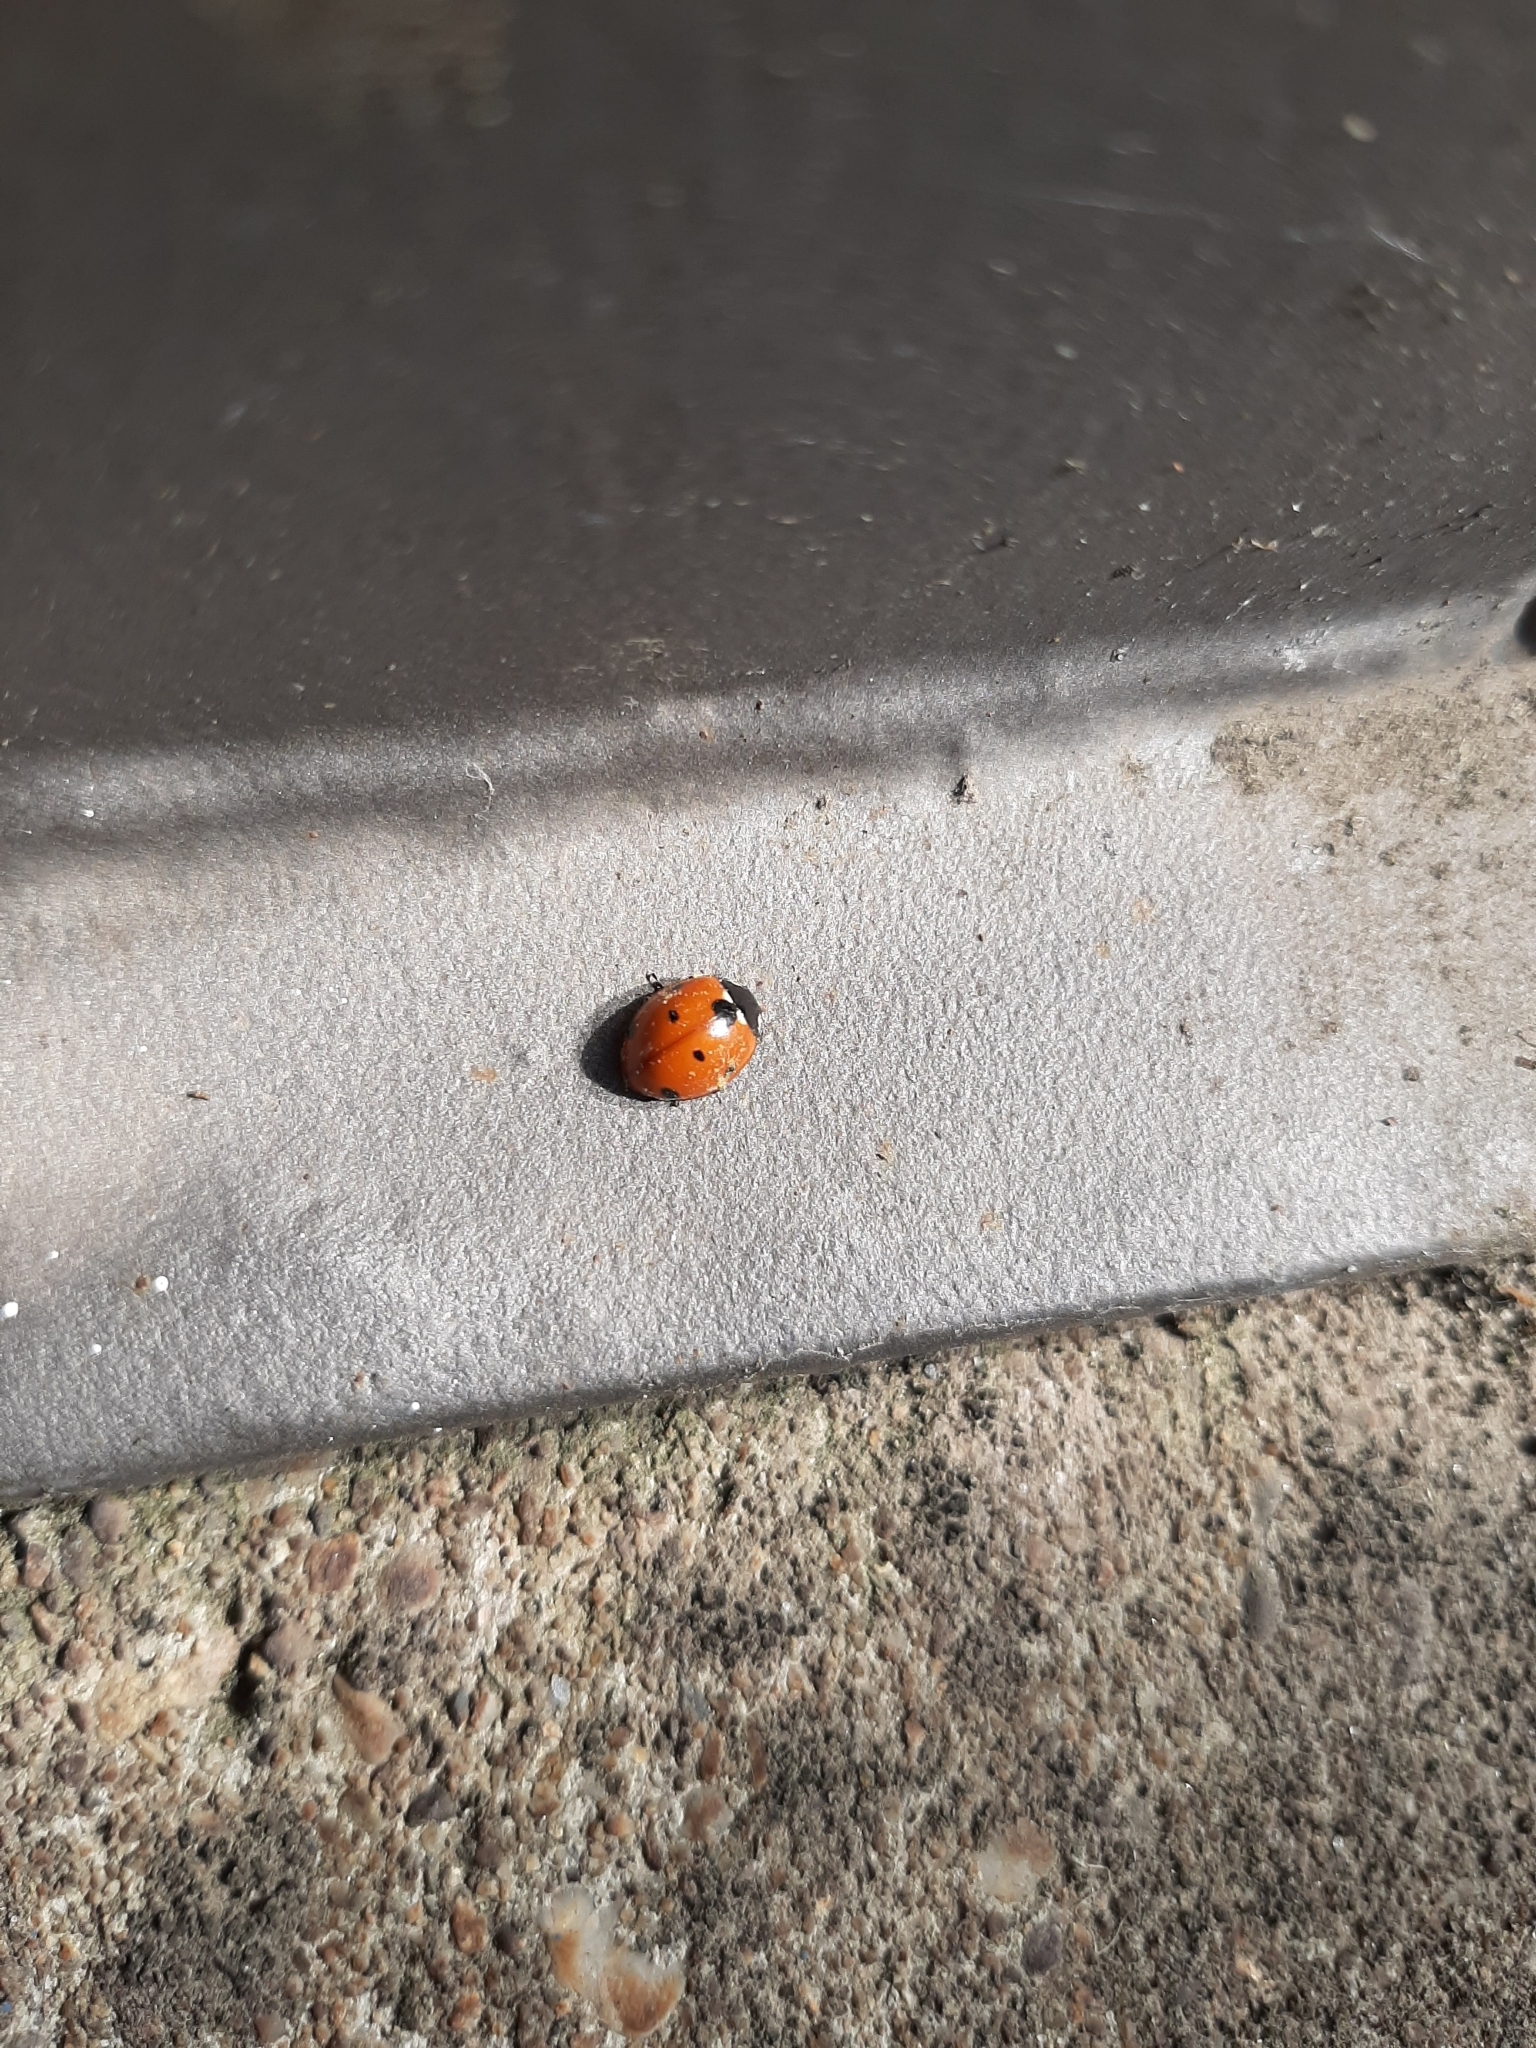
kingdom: Animalia
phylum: Arthropoda
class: Insecta
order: Coleoptera
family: Coccinellidae
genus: Coccinella
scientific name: Coccinella septempunctata
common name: Sevenspotted lady beetle
